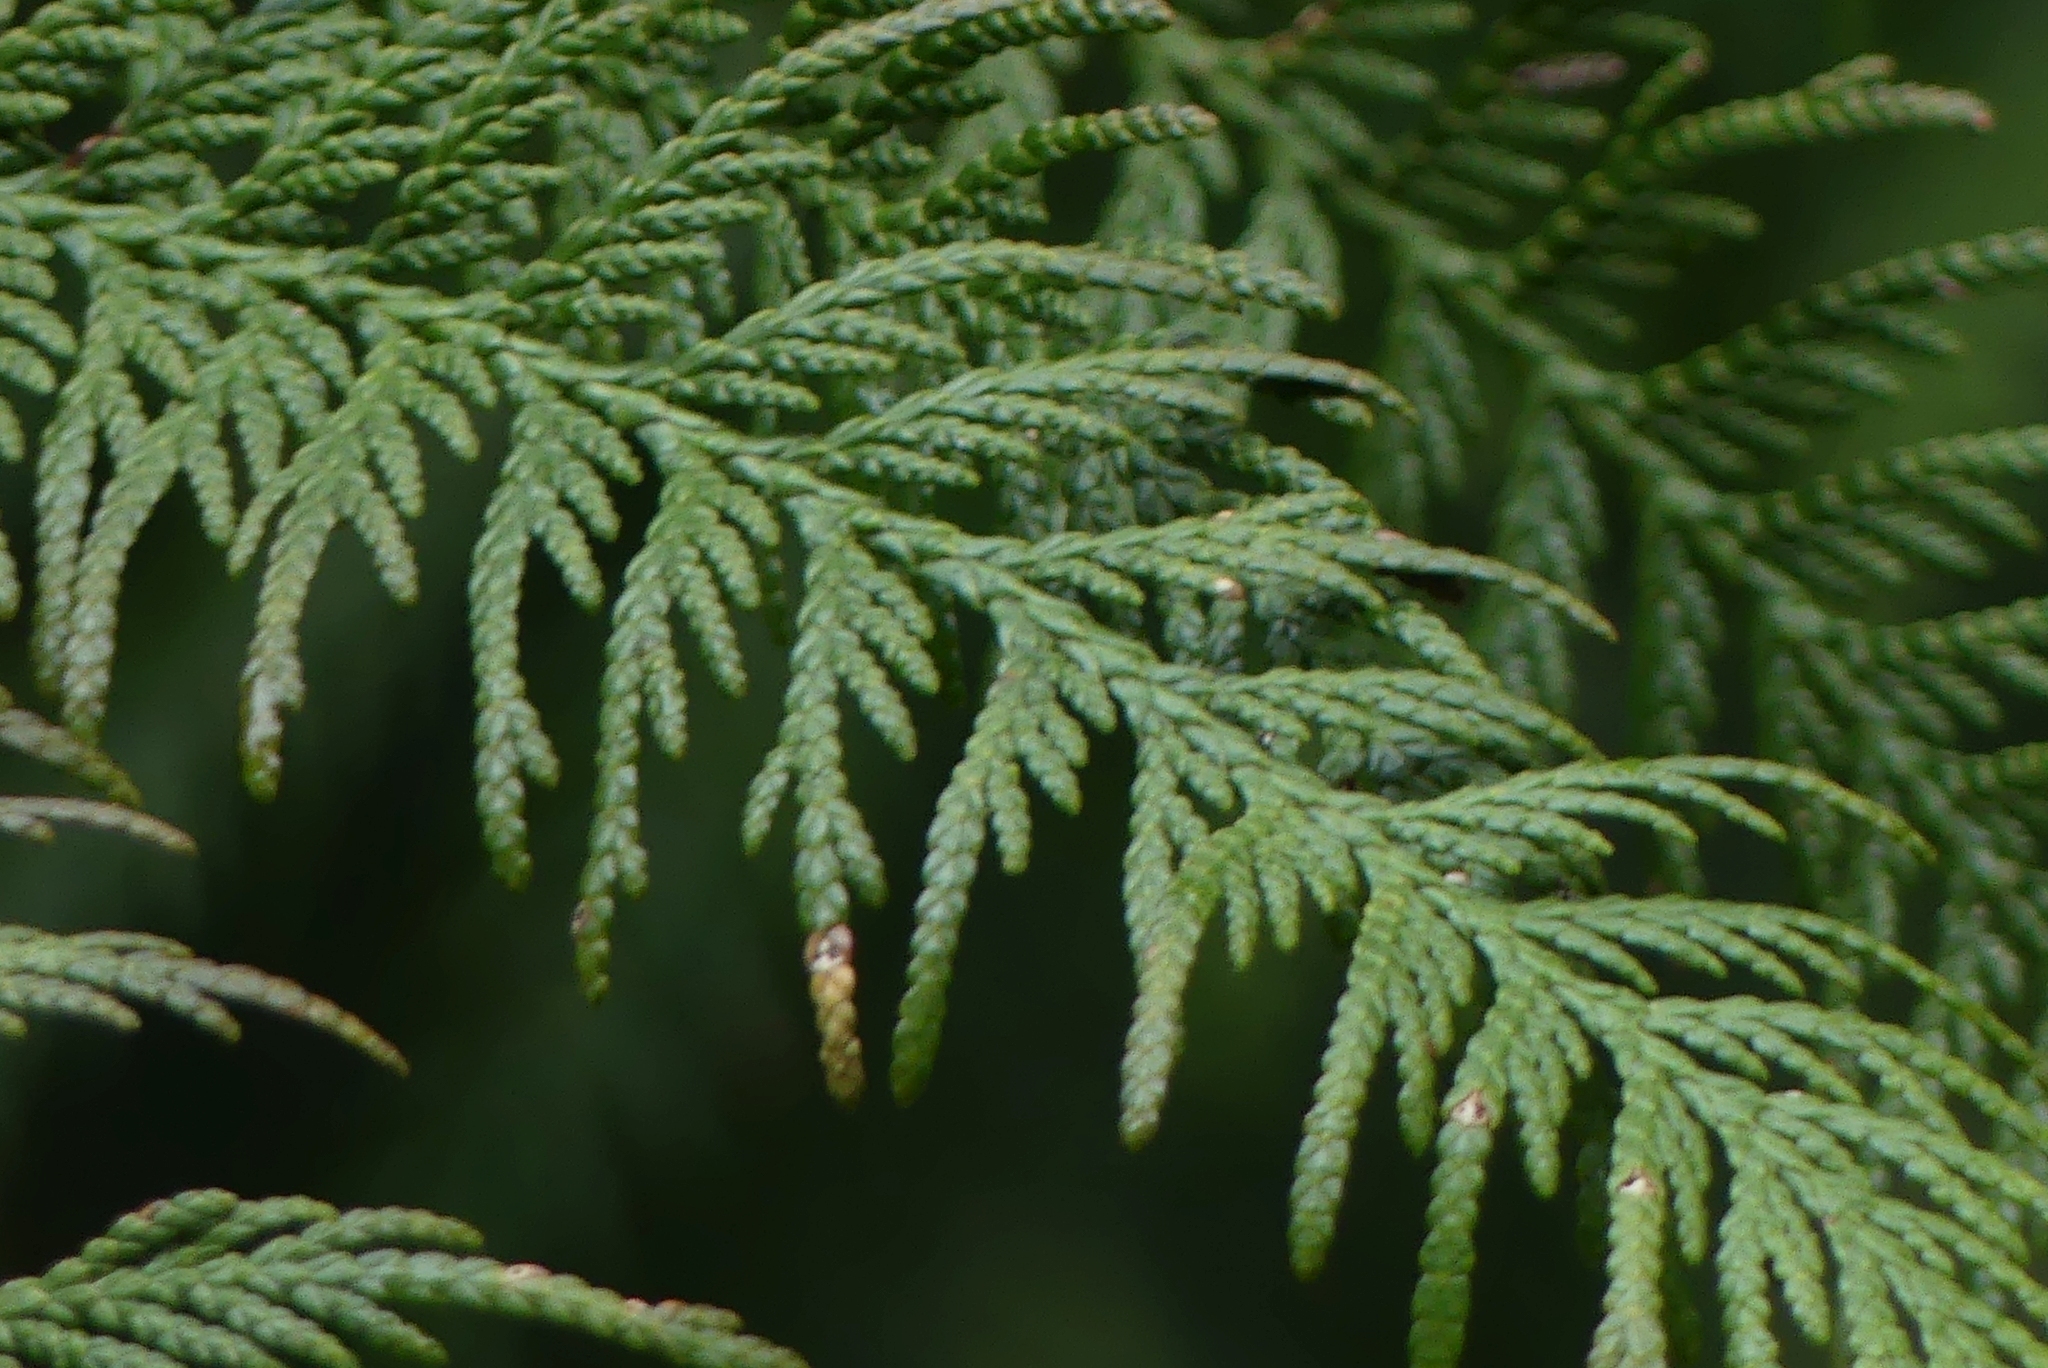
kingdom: Plantae
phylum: Tracheophyta
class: Pinopsida
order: Pinales
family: Cupressaceae
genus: Thuja
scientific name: Thuja plicata
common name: Western red-cedar
